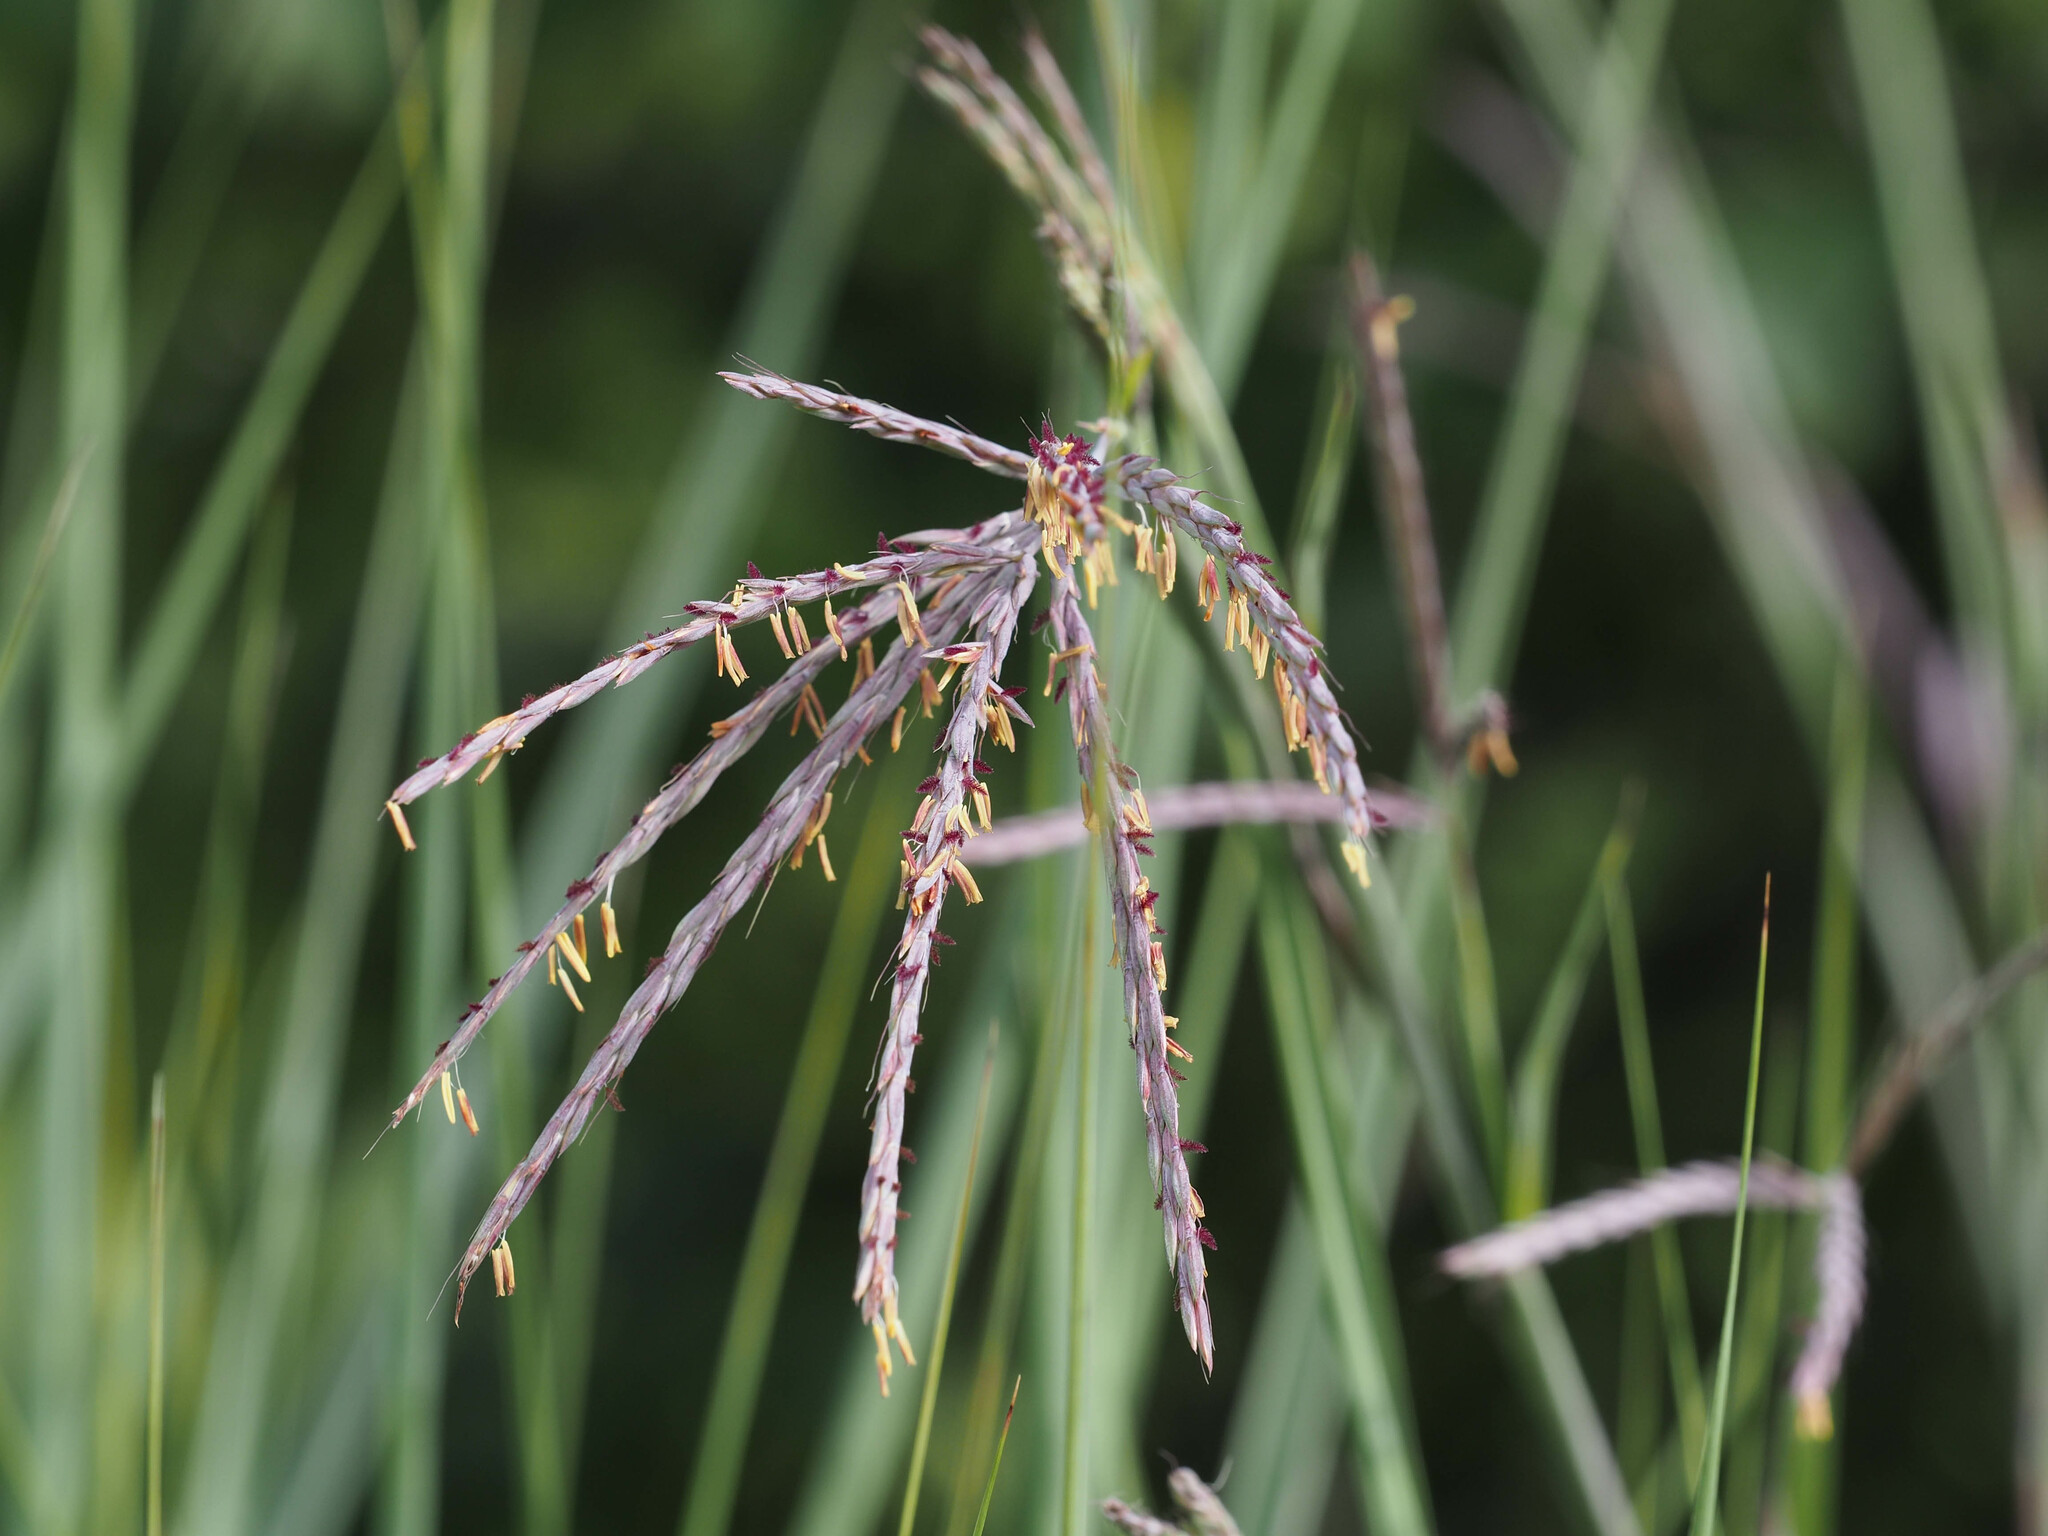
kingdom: Plantae
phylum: Tracheophyta
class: Liliopsida
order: Poales
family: Poaceae
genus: Andropogon
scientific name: Andropogon gerardi
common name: Big bluestem
